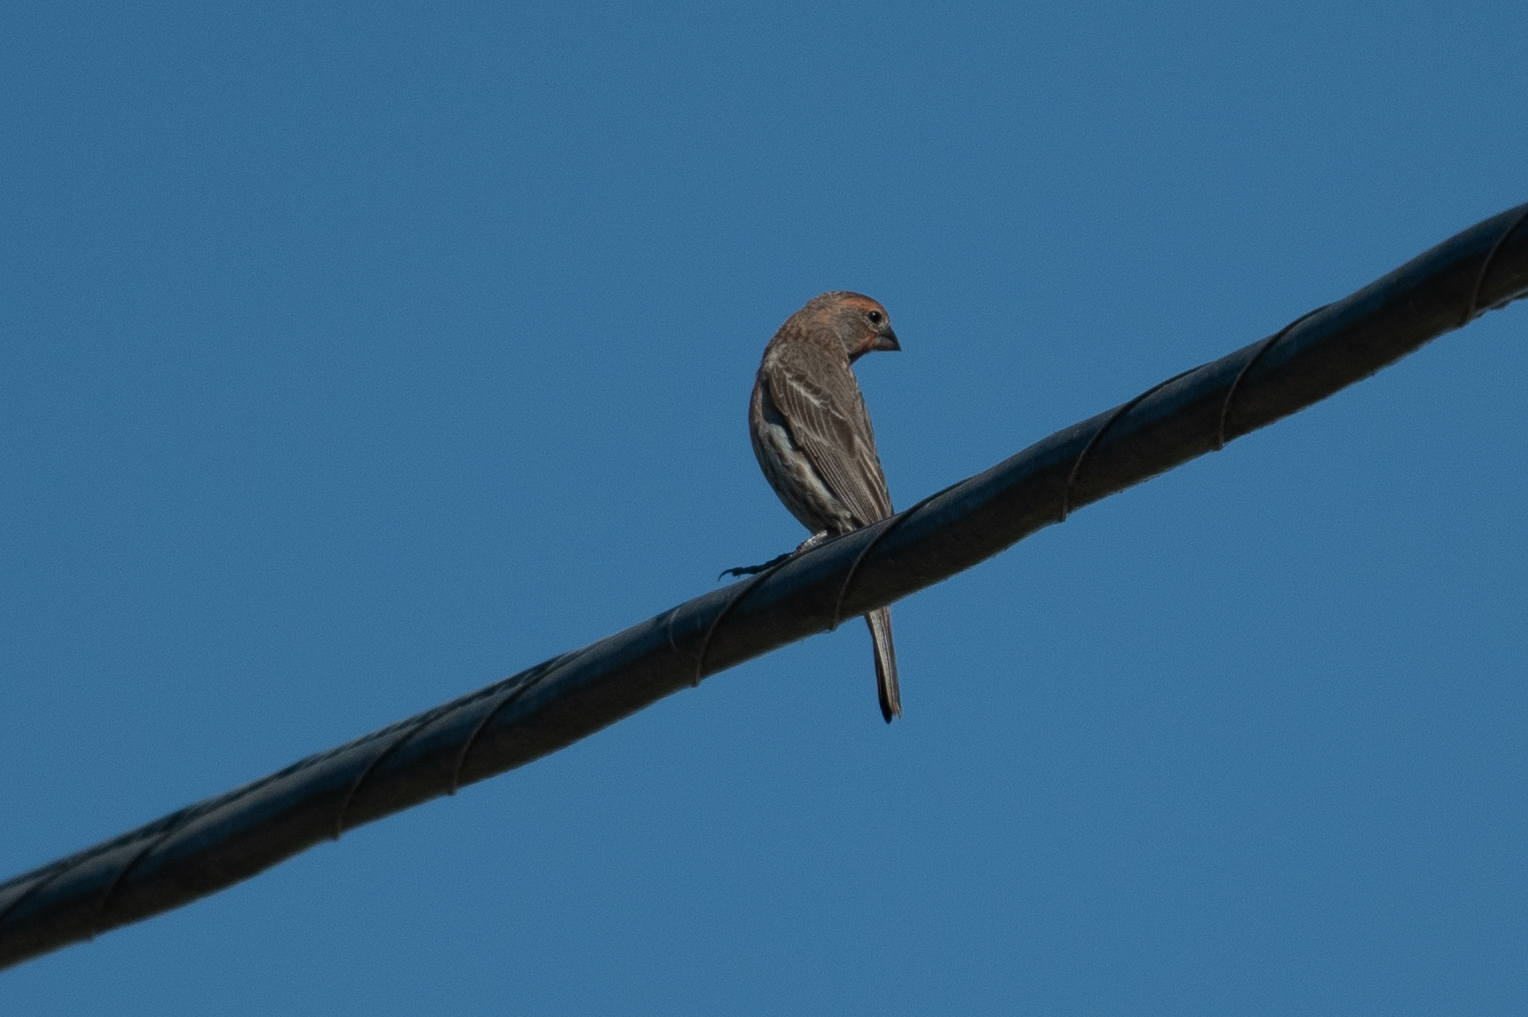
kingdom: Animalia
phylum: Chordata
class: Aves
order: Passeriformes
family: Fringillidae
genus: Haemorhous
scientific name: Haemorhous mexicanus
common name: House finch
